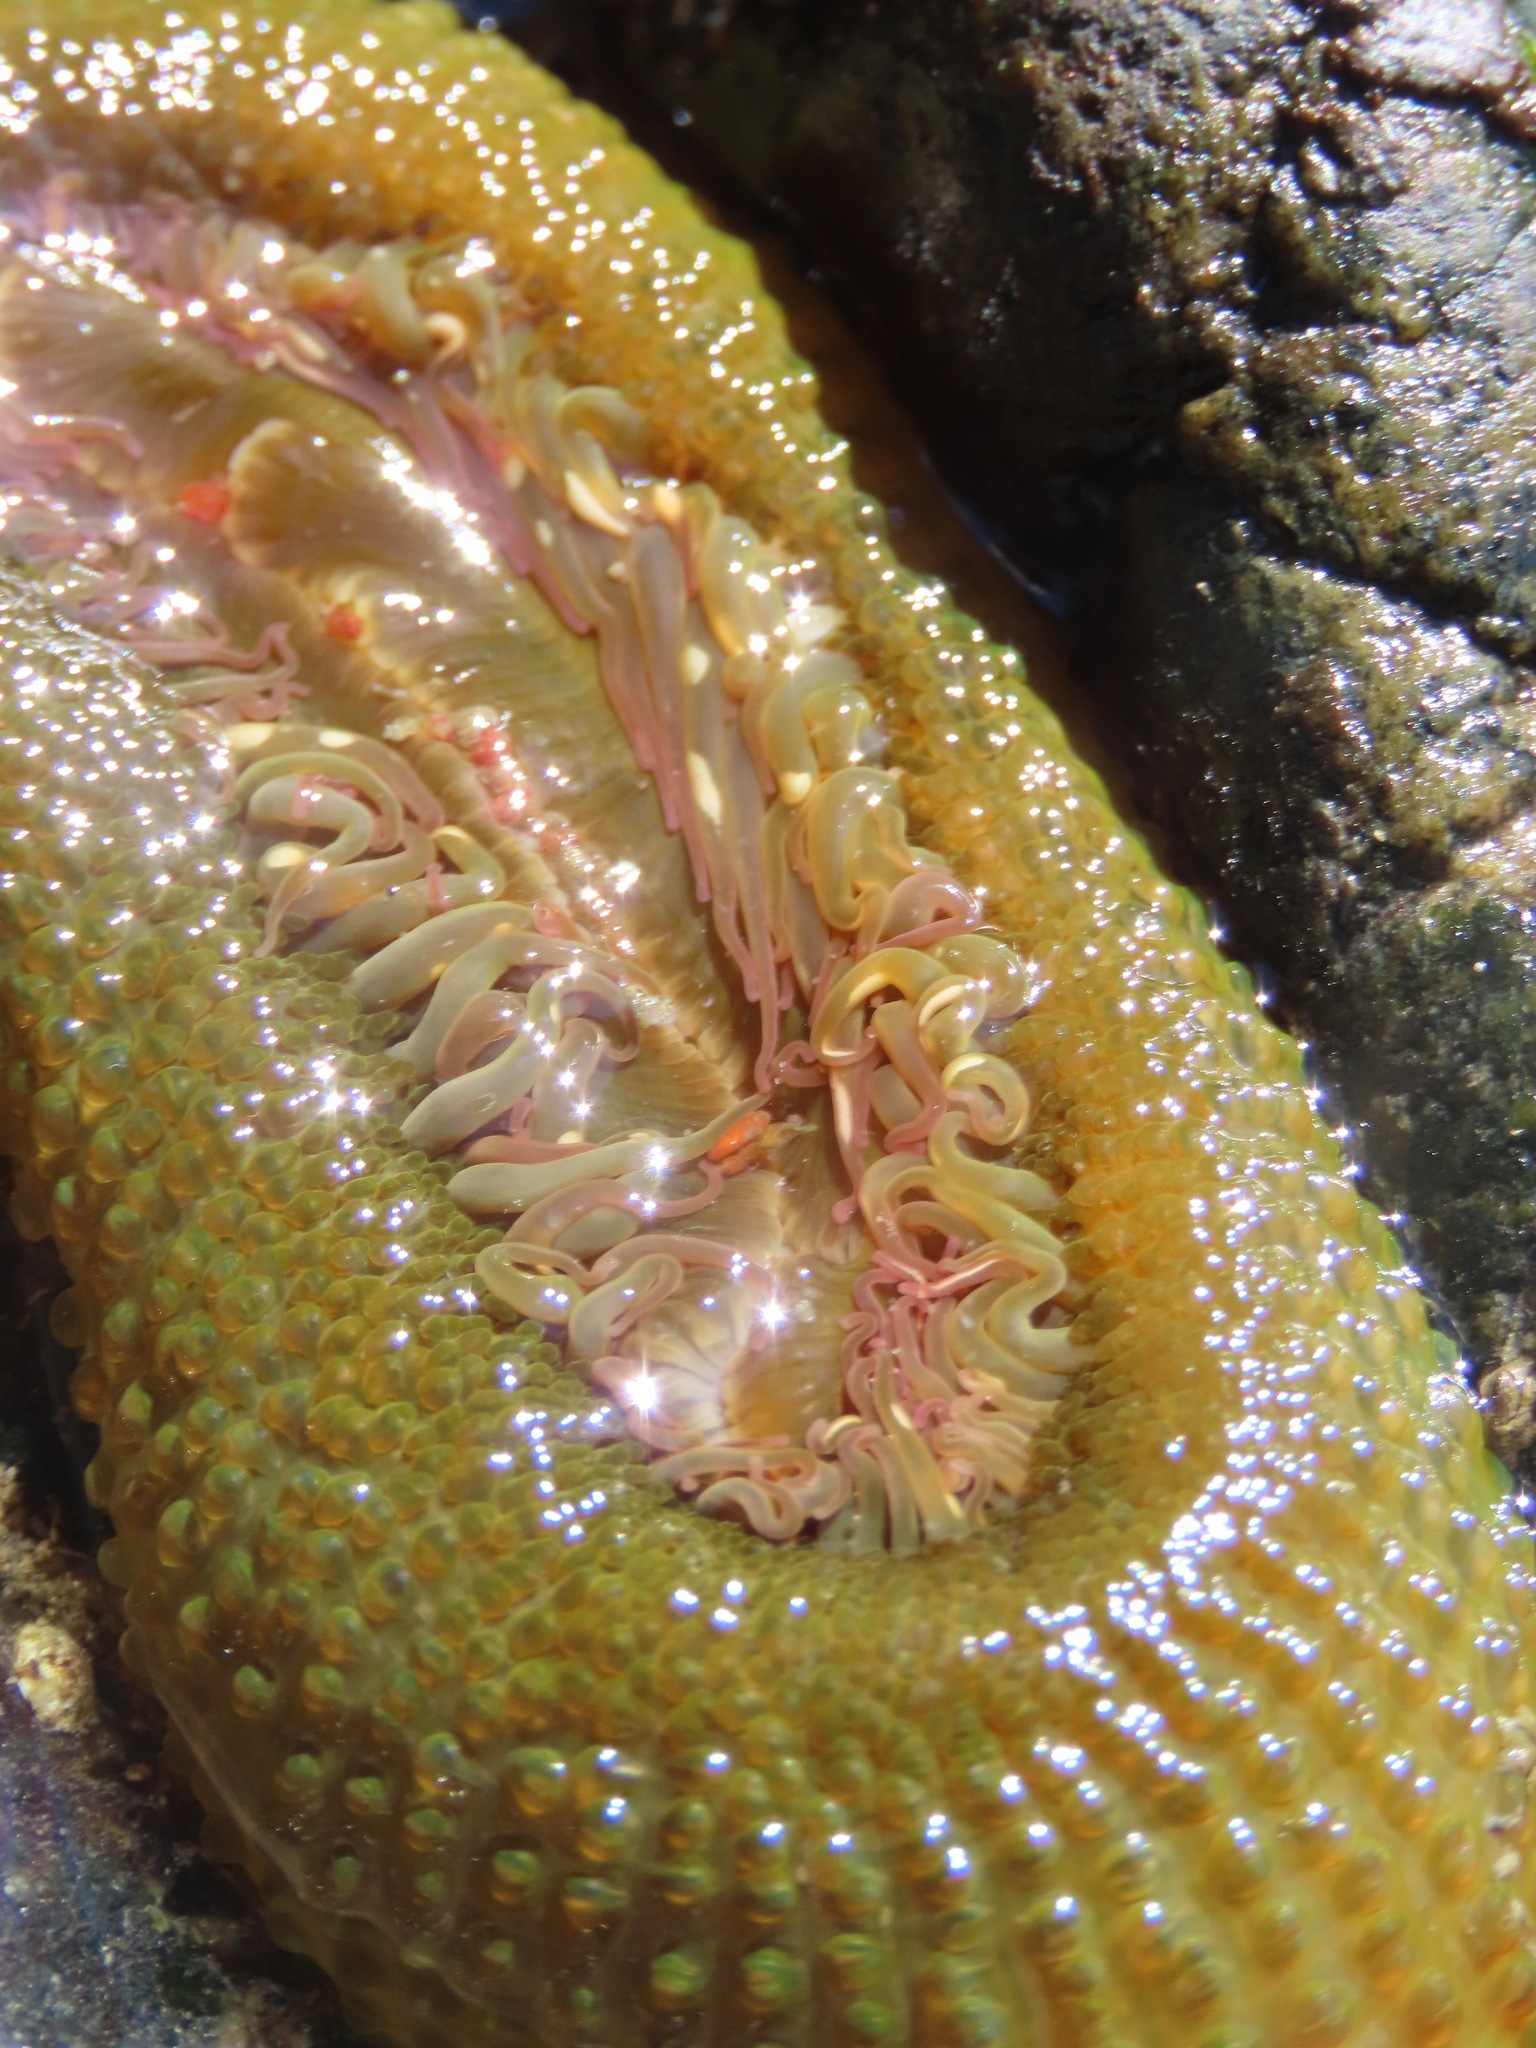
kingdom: Animalia
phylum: Cnidaria
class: Anthozoa
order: Actiniaria
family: Actiniidae
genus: Anthopleura
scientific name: Anthopleura elegantissima
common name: Clonal anemone
